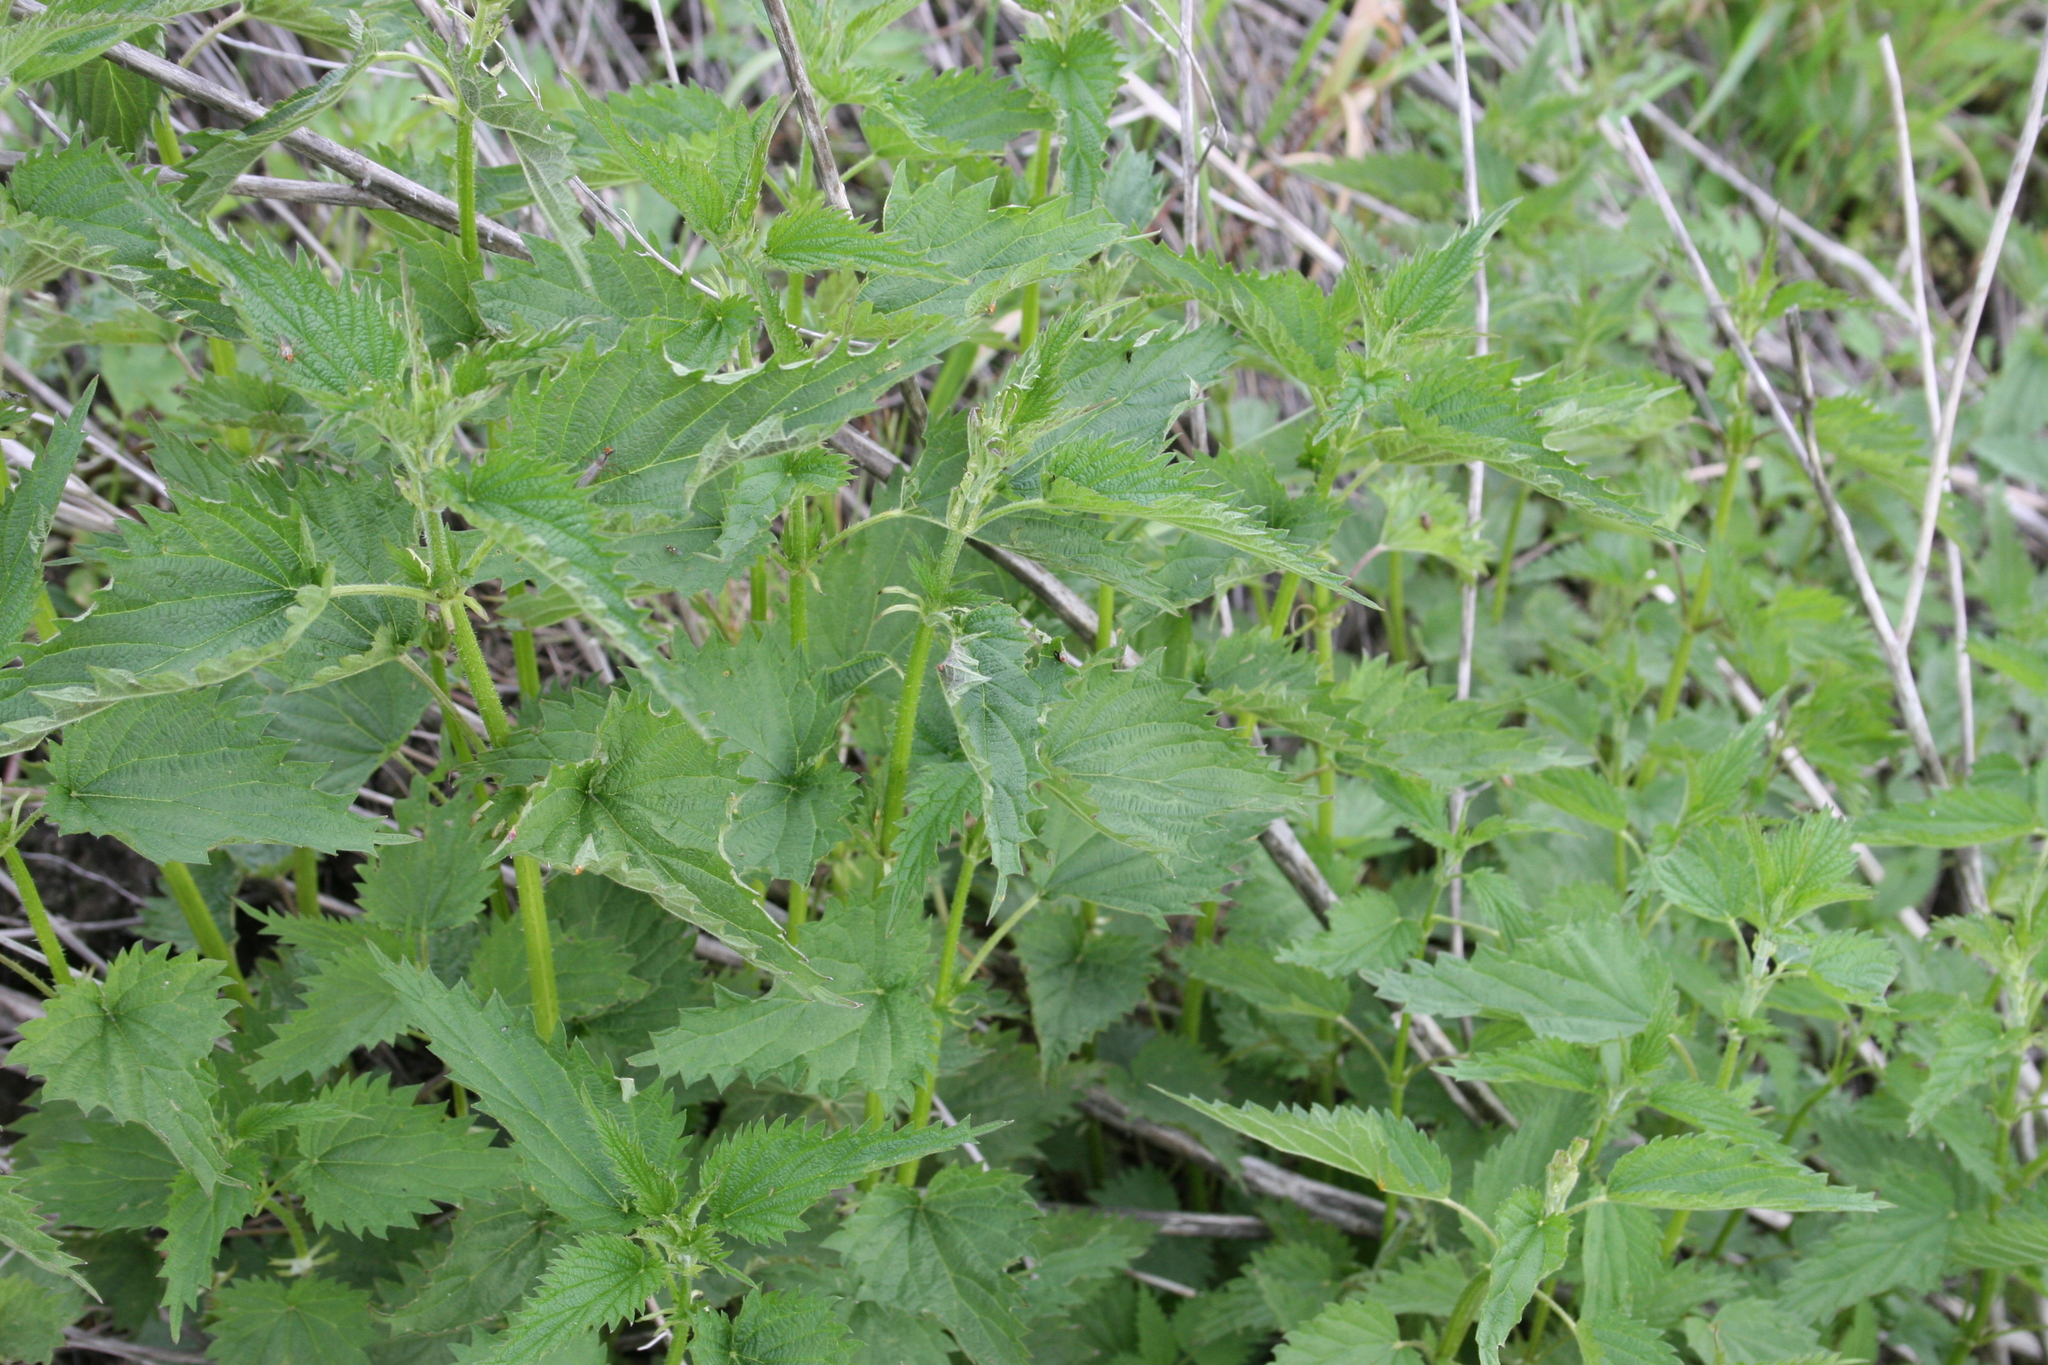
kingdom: Plantae
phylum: Tracheophyta
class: Magnoliopsida
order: Rosales
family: Urticaceae
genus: Urtica
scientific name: Urtica dioica
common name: Common nettle
